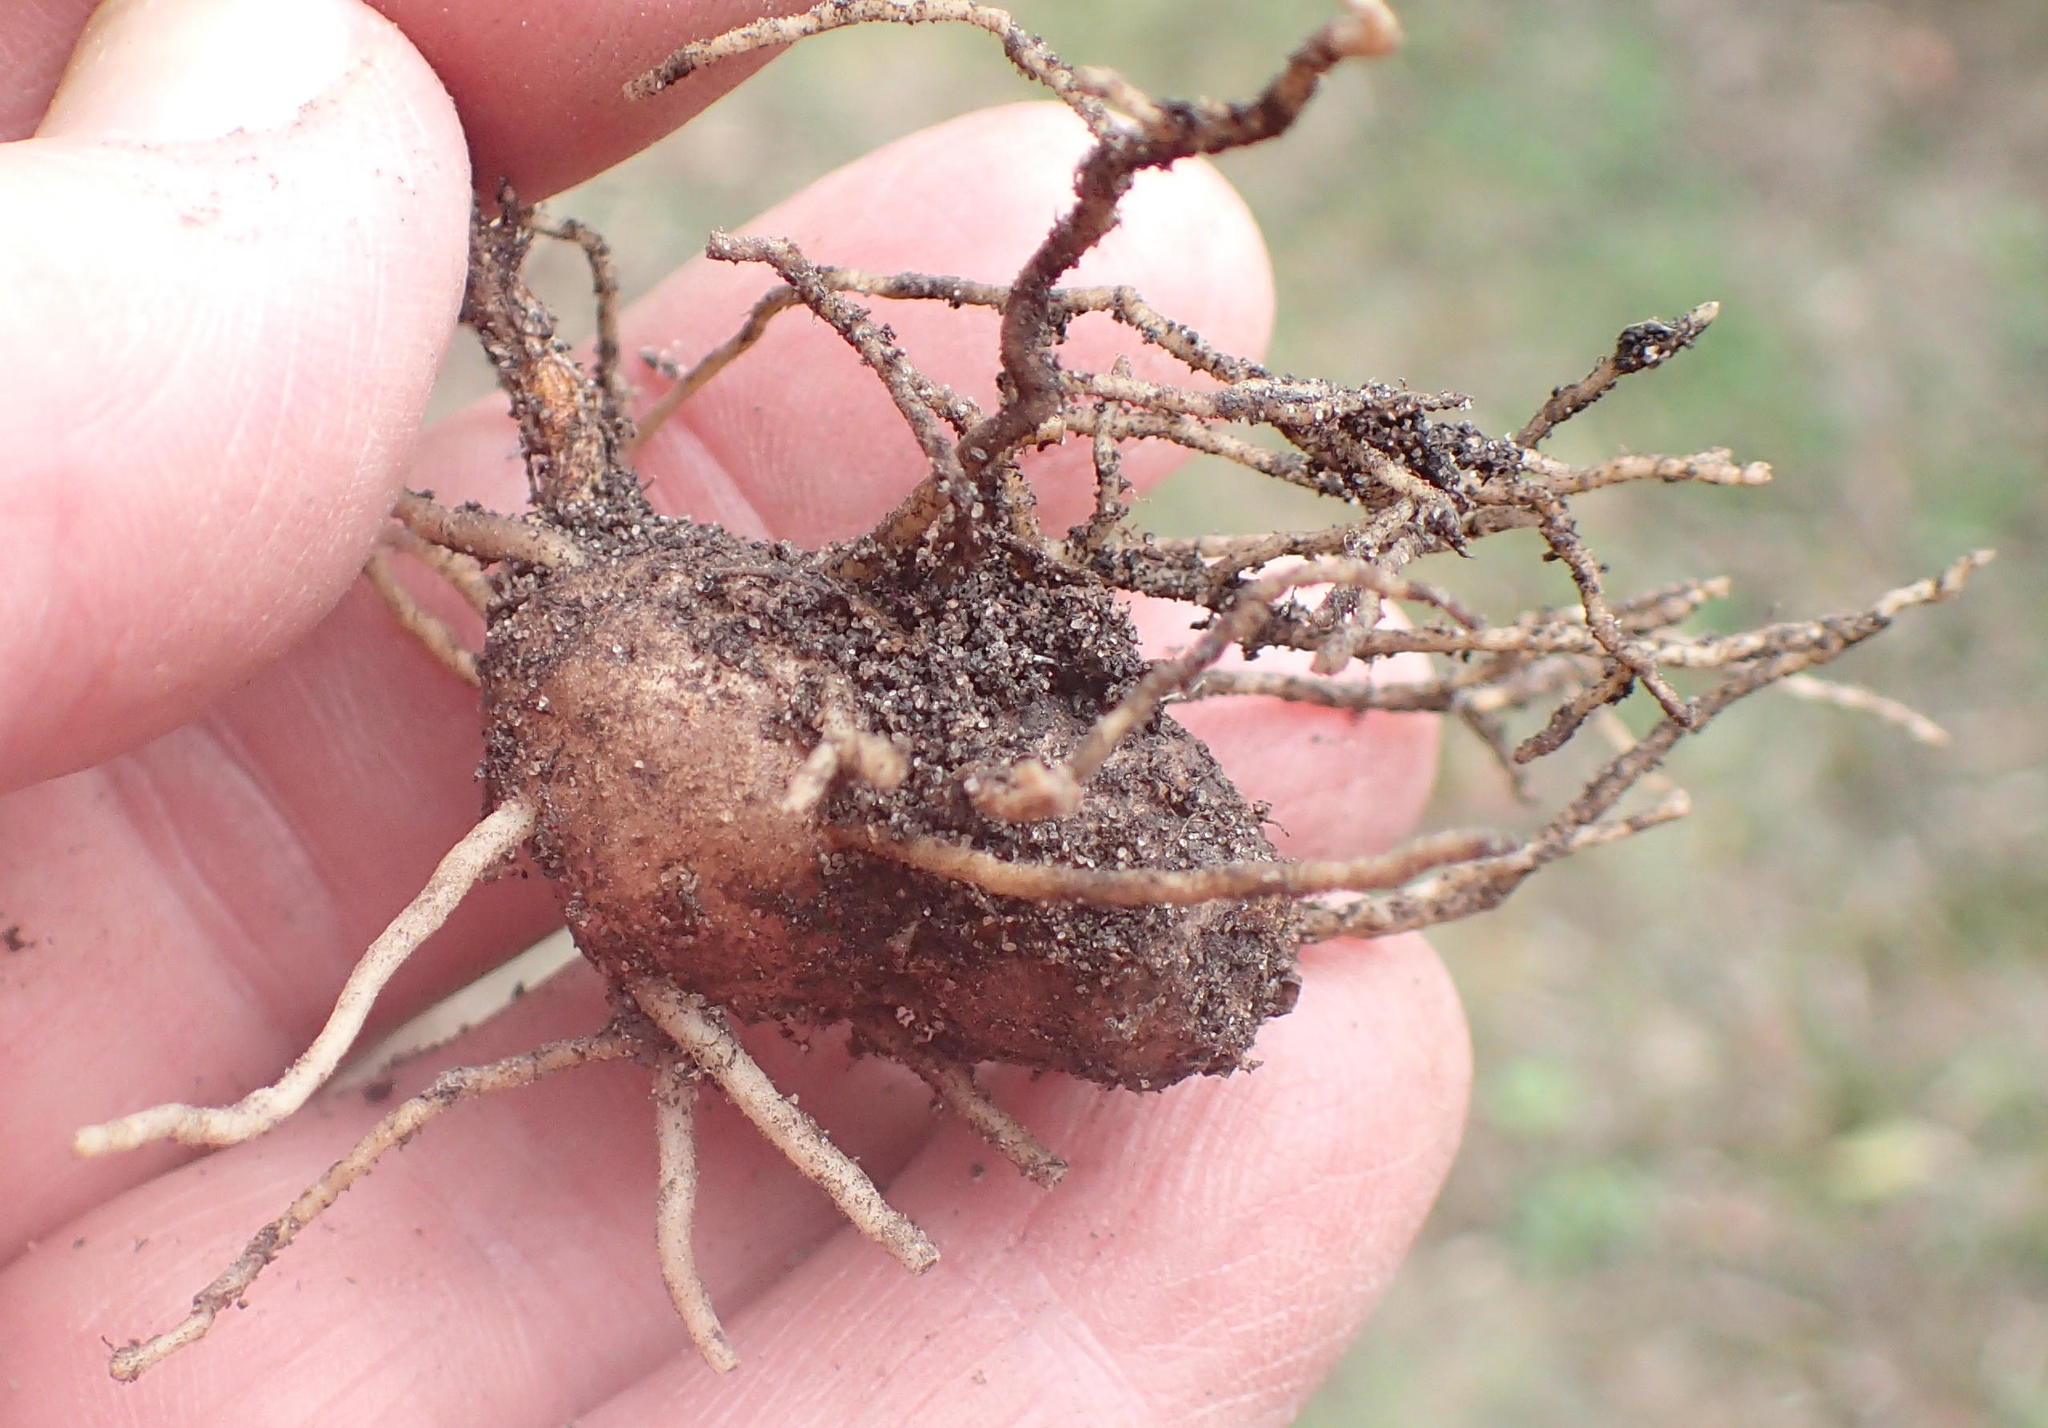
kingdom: Plantae
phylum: Tracheophyta
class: Liliopsida
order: Asparagales
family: Asparagaceae
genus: Eriospermum
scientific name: Eriospermum dielsianum
